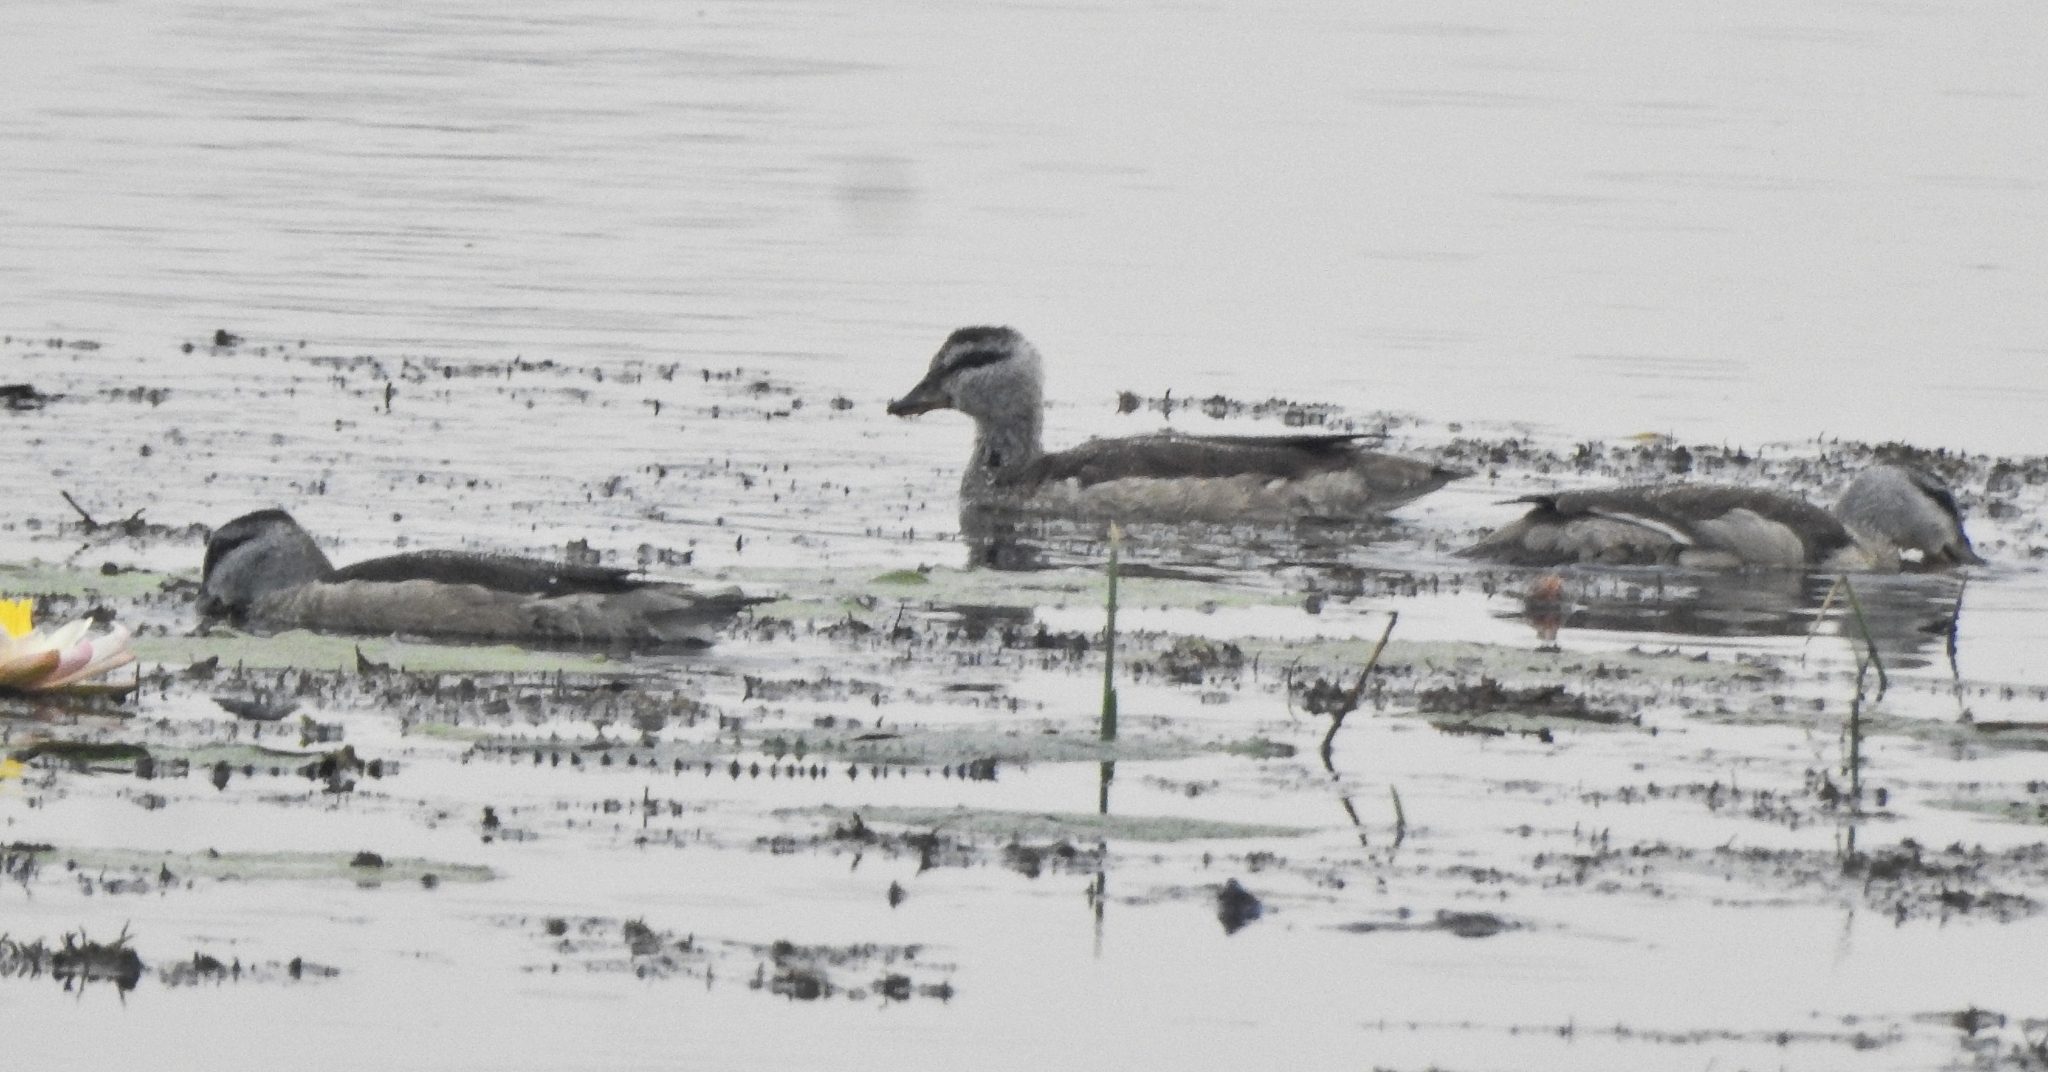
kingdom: Animalia
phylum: Chordata
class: Aves
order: Anseriformes
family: Anatidae
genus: Nettapus
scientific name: Nettapus coromandelianus
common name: Cotton pygmy-goose
